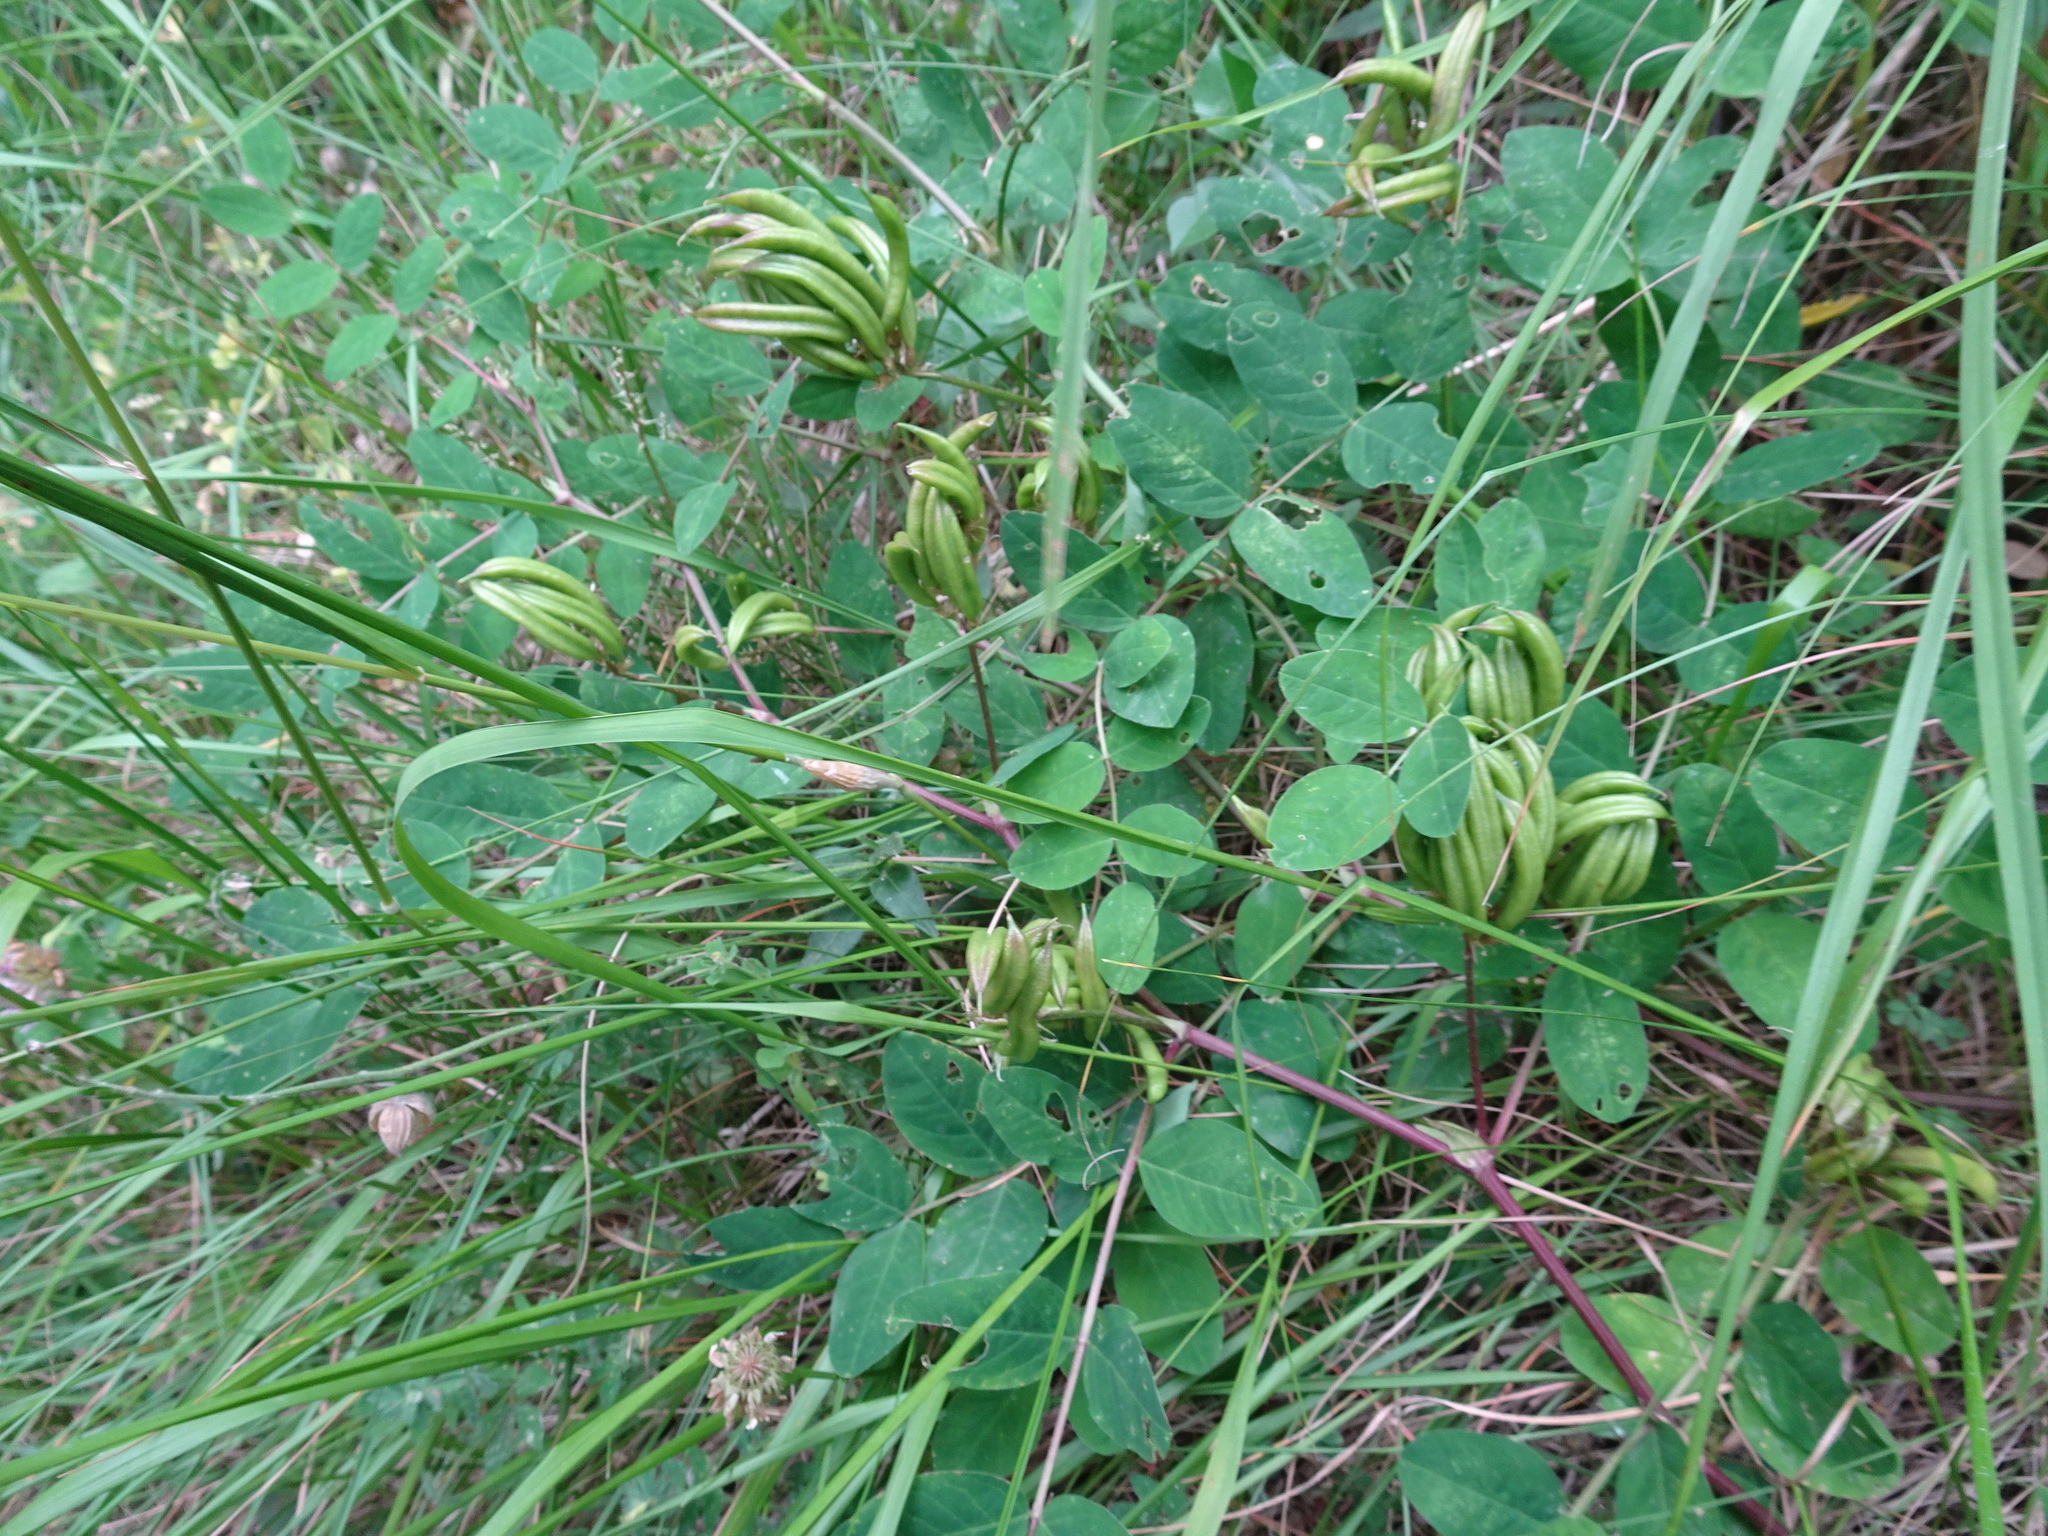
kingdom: Plantae
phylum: Tracheophyta
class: Magnoliopsida
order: Fabales
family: Fabaceae
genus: Astragalus
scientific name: Astragalus glycyphyllos
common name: Wild liquorice
